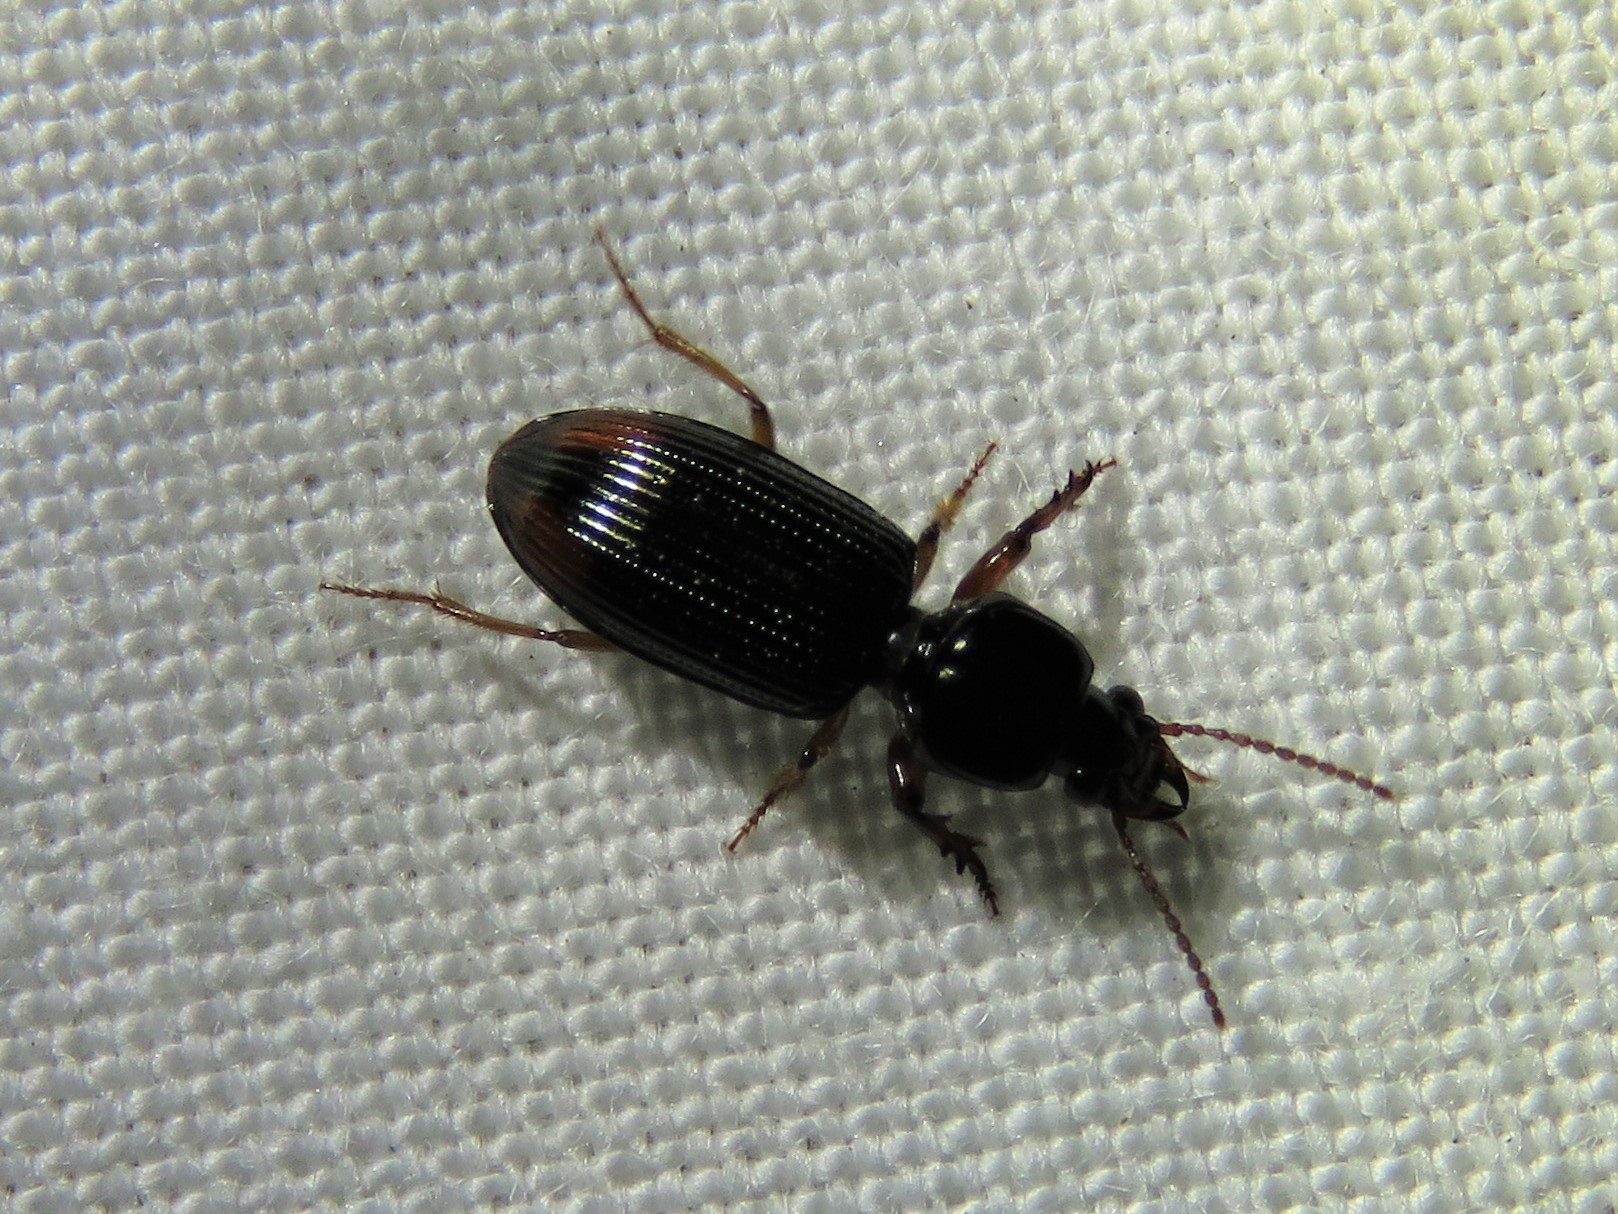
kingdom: Animalia
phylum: Arthropoda
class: Insecta
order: Coleoptera
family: Carabidae
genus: Aspidoglossa
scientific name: Aspidoglossa subangulata
